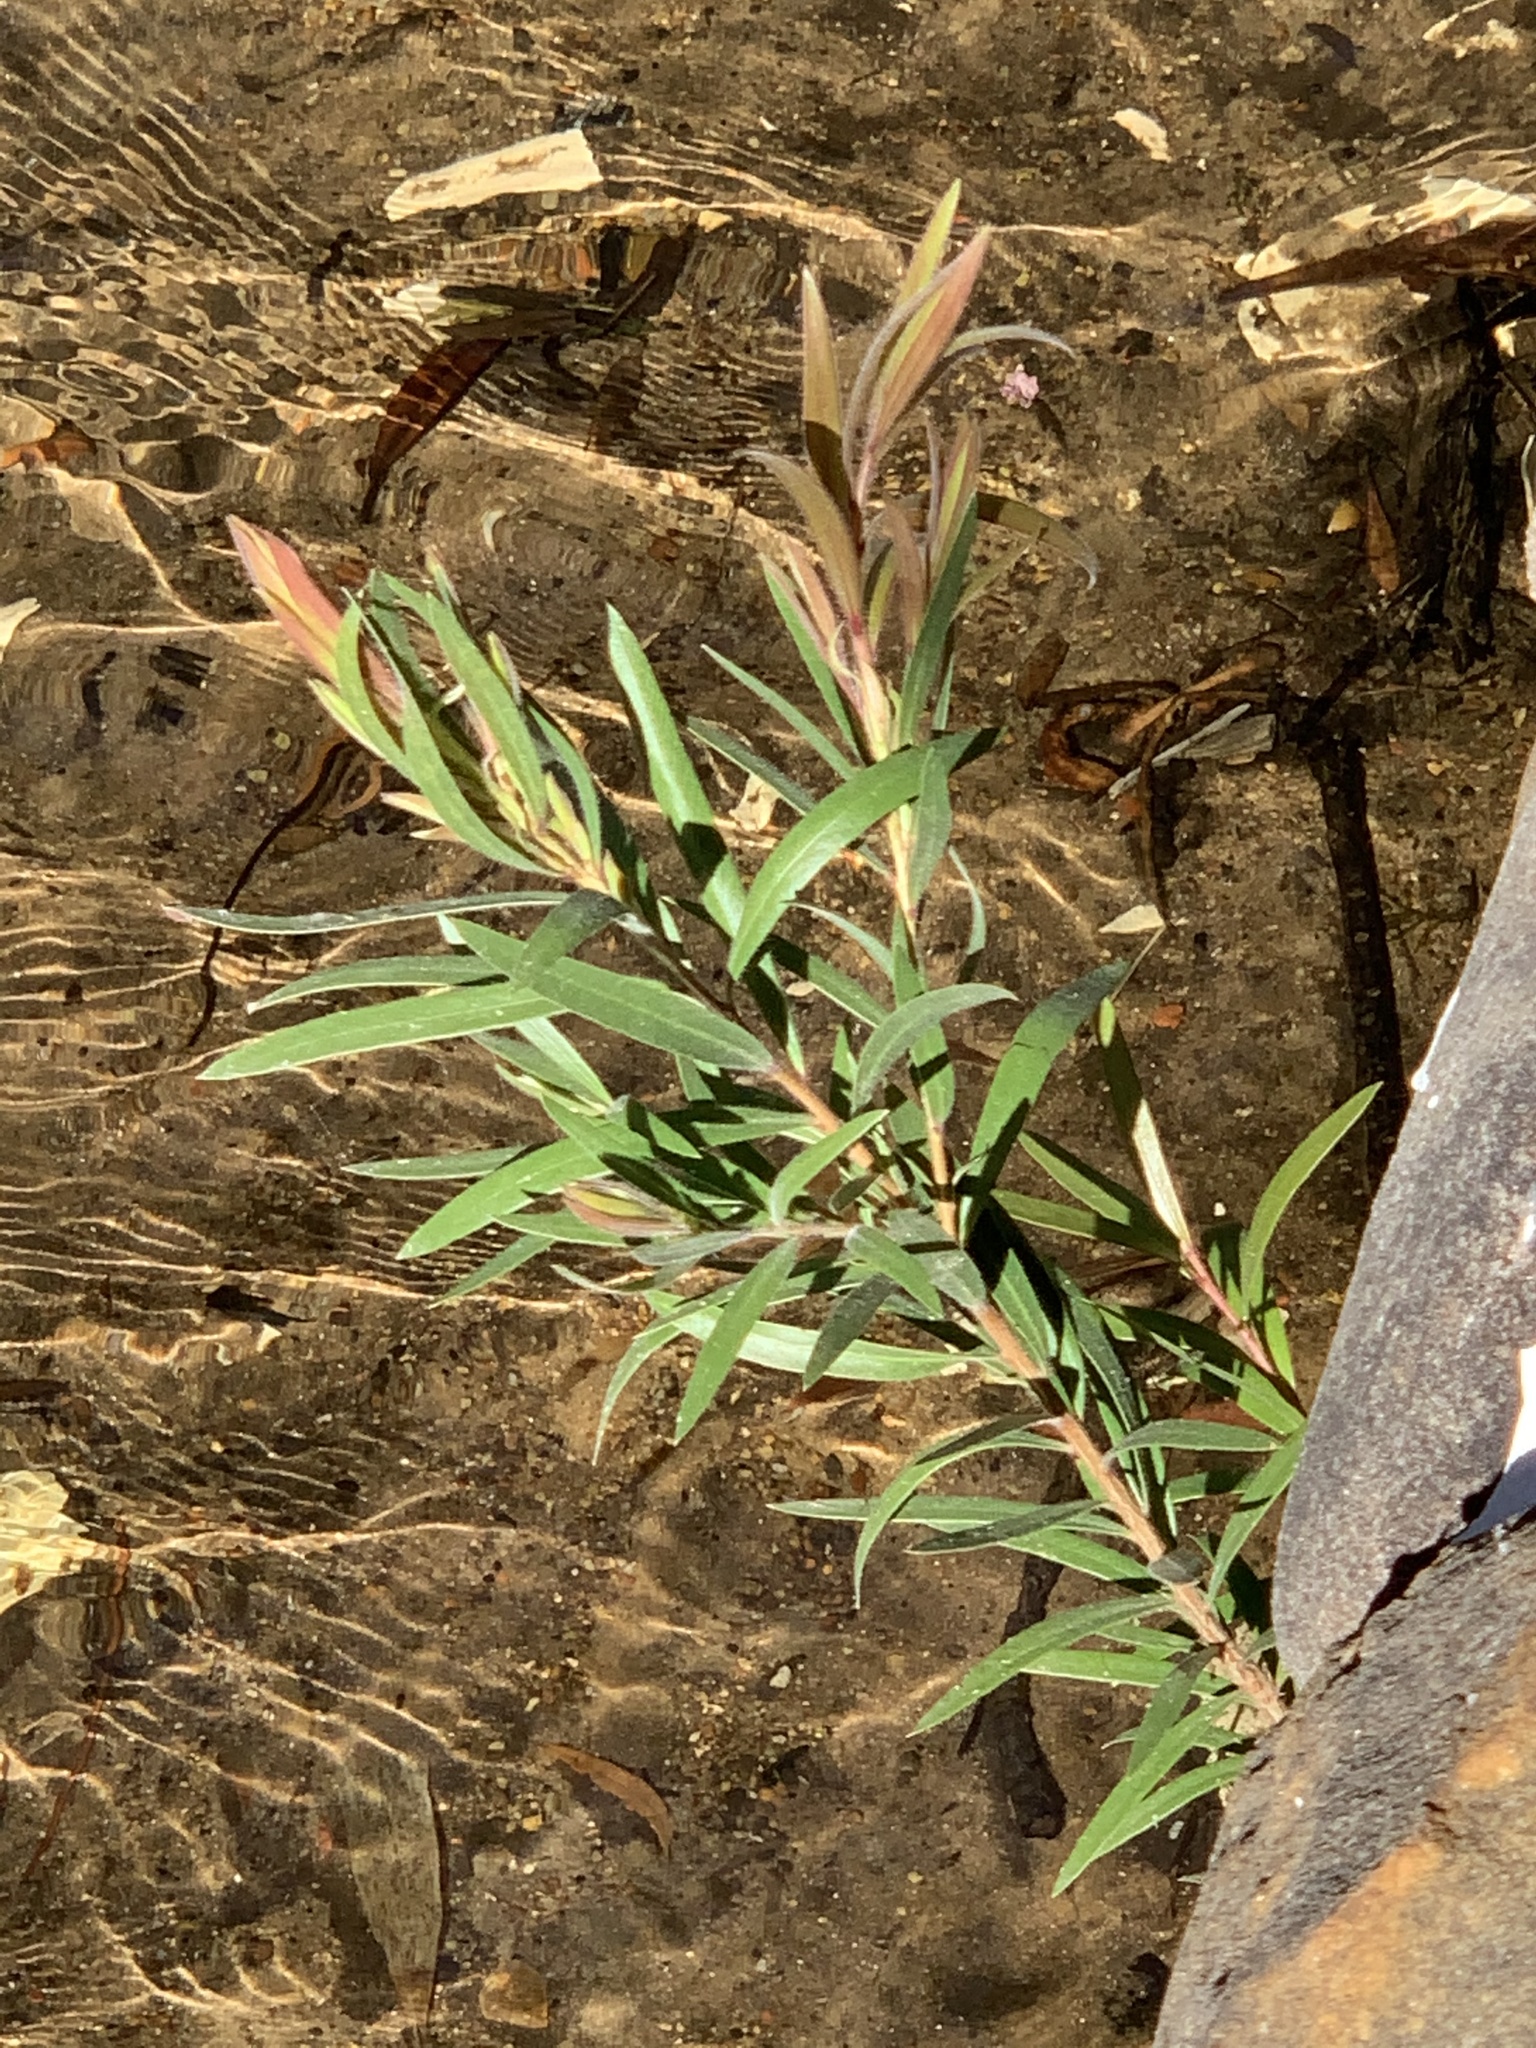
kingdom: Plantae
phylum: Tracheophyta
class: Magnoliopsida
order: Myrtales
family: Myrtaceae
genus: Callistemon
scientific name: Callistemon viminalis
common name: Drooping bottlebrush
